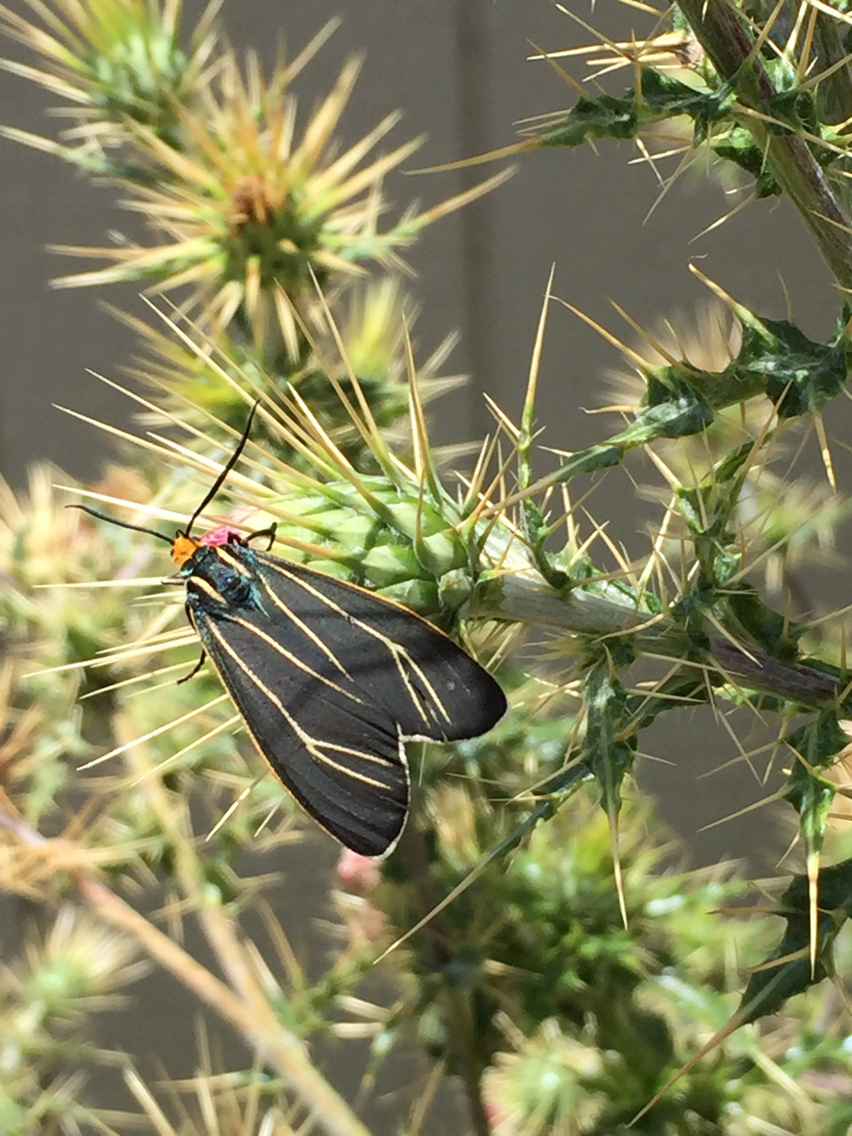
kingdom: Animalia
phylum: Arthropoda
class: Insecta
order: Lepidoptera
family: Erebidae
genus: Ctenucha
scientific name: Ctenucha venosa
